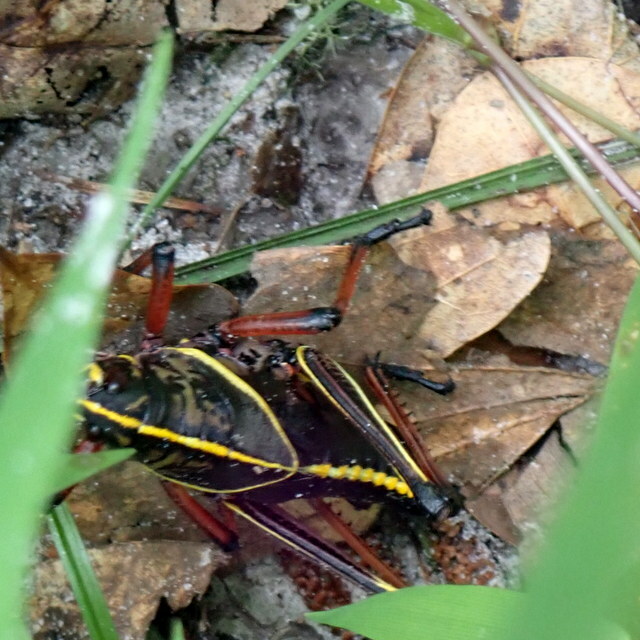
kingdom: Animalia
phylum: Arthropoda
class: Insecta
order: Orthoptera
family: Romaleidae
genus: Romalea
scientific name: Romalea microptera
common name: Eastern lubber grasshopper
